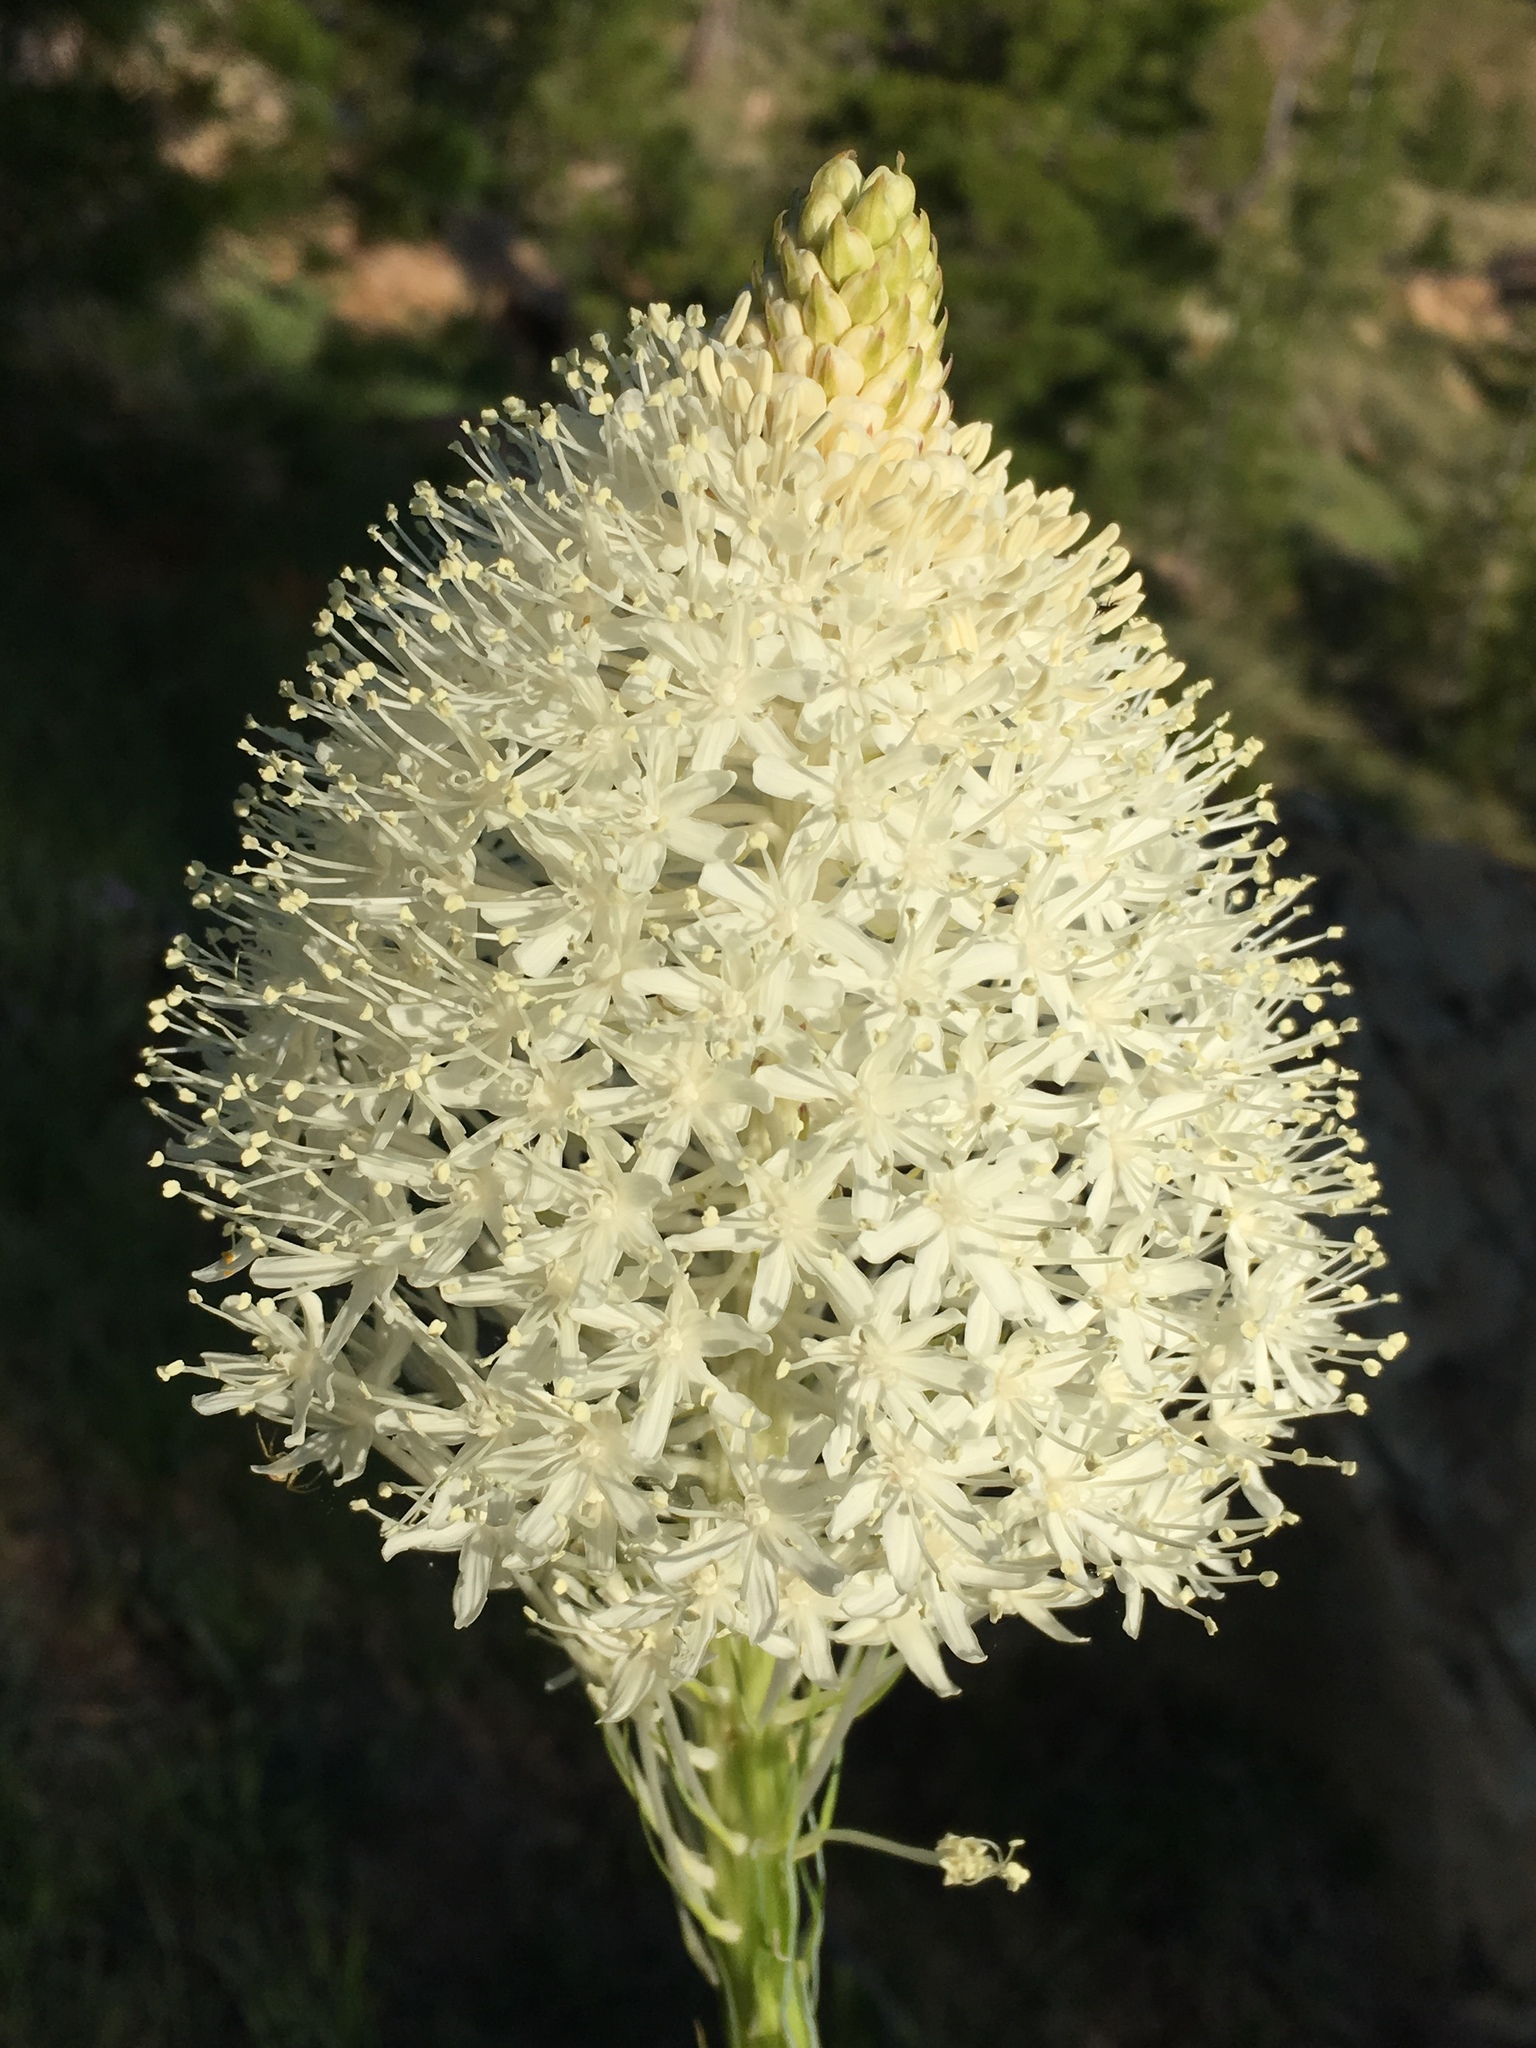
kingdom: Plantae
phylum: Tracheophyta
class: Liliopsida
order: Liliales
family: Melanthiaceae
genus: Xerophyllum
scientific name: Xerophyllum tenax
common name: Bear-grass
